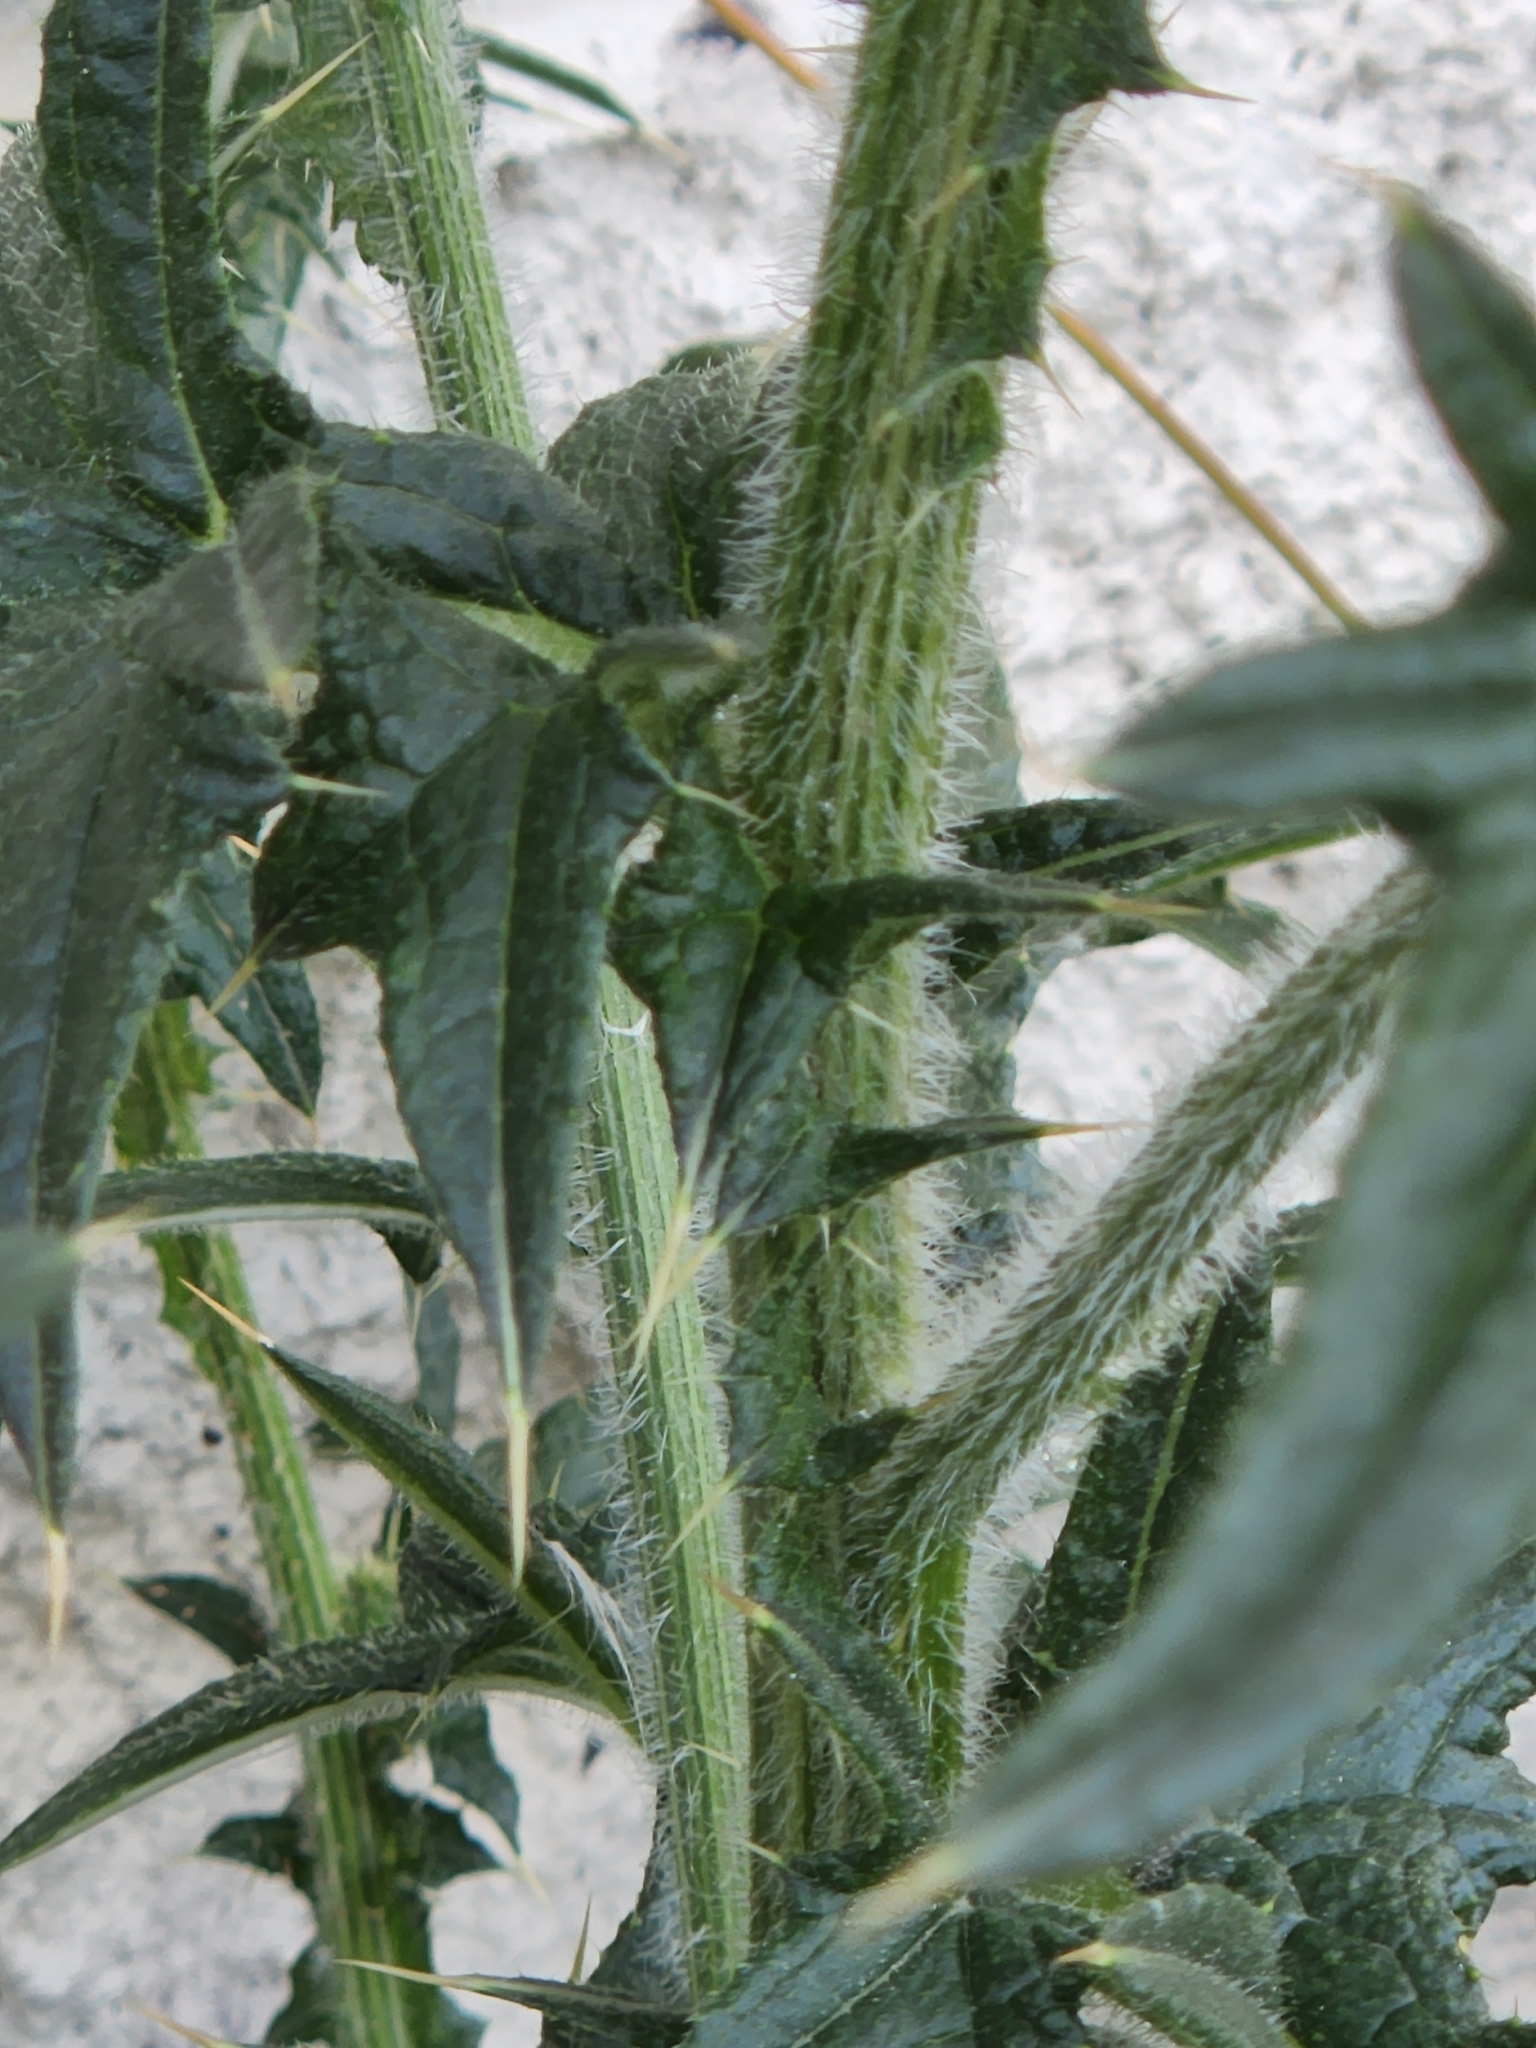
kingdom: Plantae
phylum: Tracheophyta
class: Magnoliopsida
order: Asterales
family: Asteraceae
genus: Cirsium
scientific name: Cirsium vulgare
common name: Bull thistle
